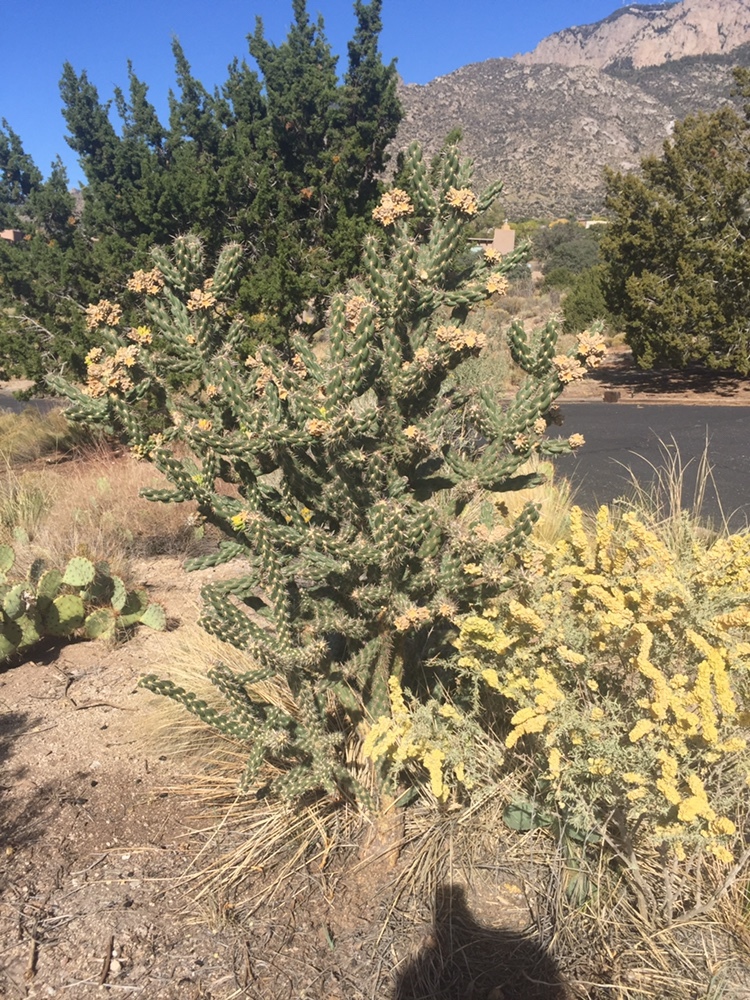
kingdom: Plantae
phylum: Tracheophyta
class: Magnoliopsida
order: Caryophyllales
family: Cactaceae
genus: Cylindropuntia
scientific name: Cylindropuntia imbricata
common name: Candelabrum cactus
